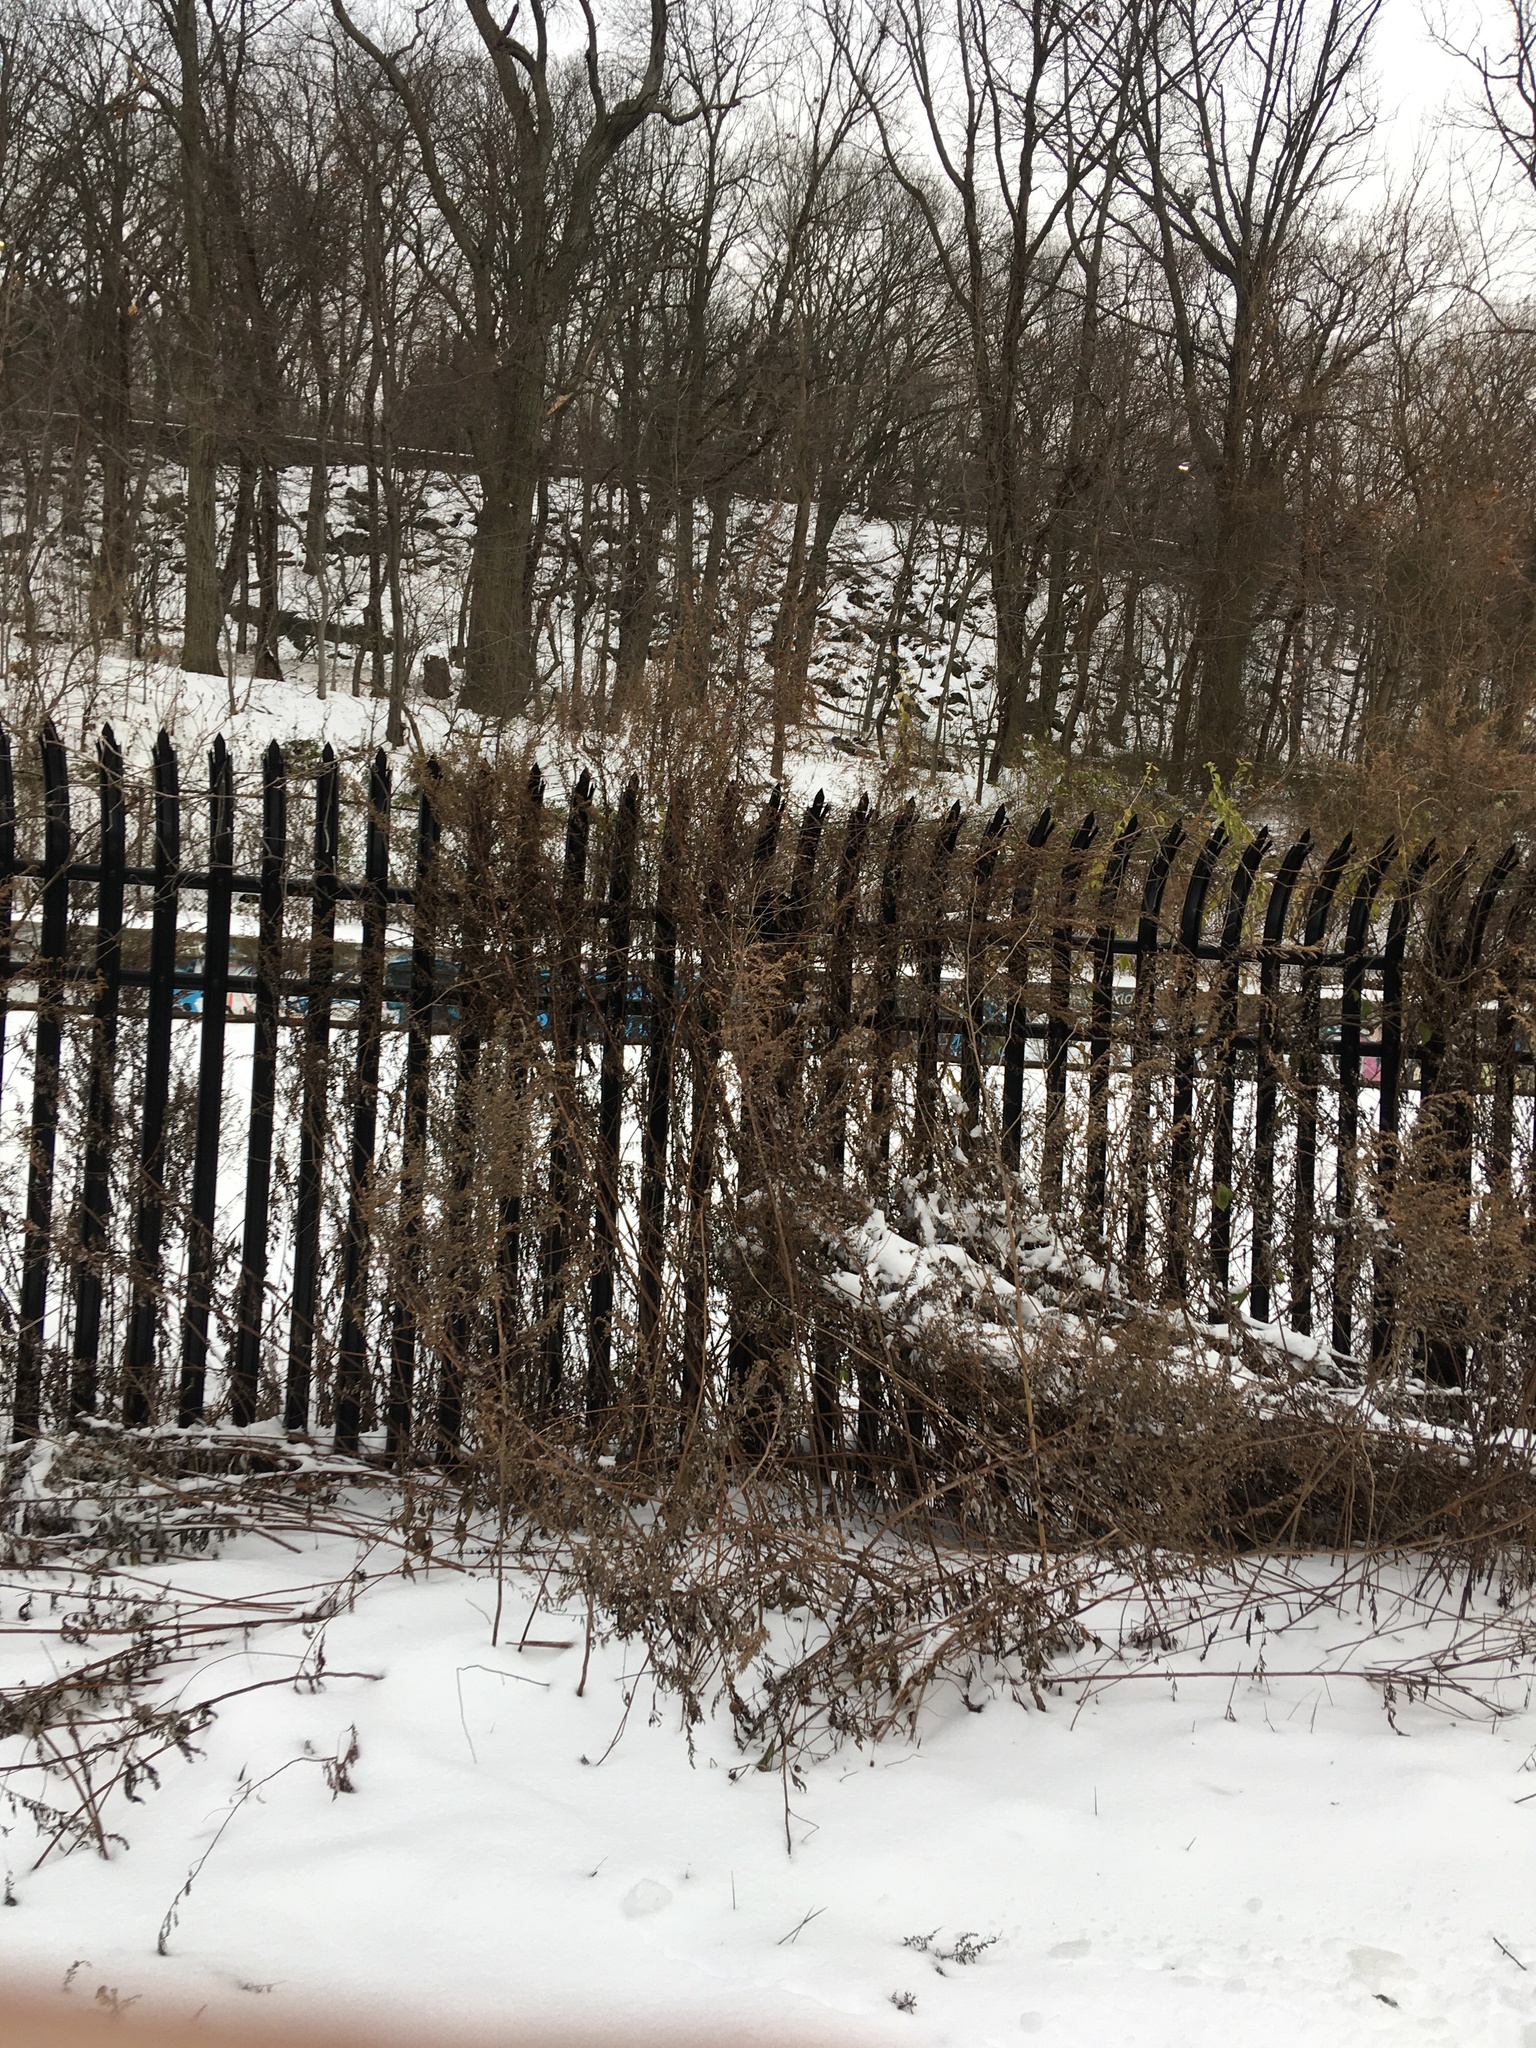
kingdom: Plantae
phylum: Tracheophyta
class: Magnoliopsida
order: Asterales
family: Asteraceae
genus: Artemisia
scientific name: Artemisia vulgaris
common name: Mugwort
